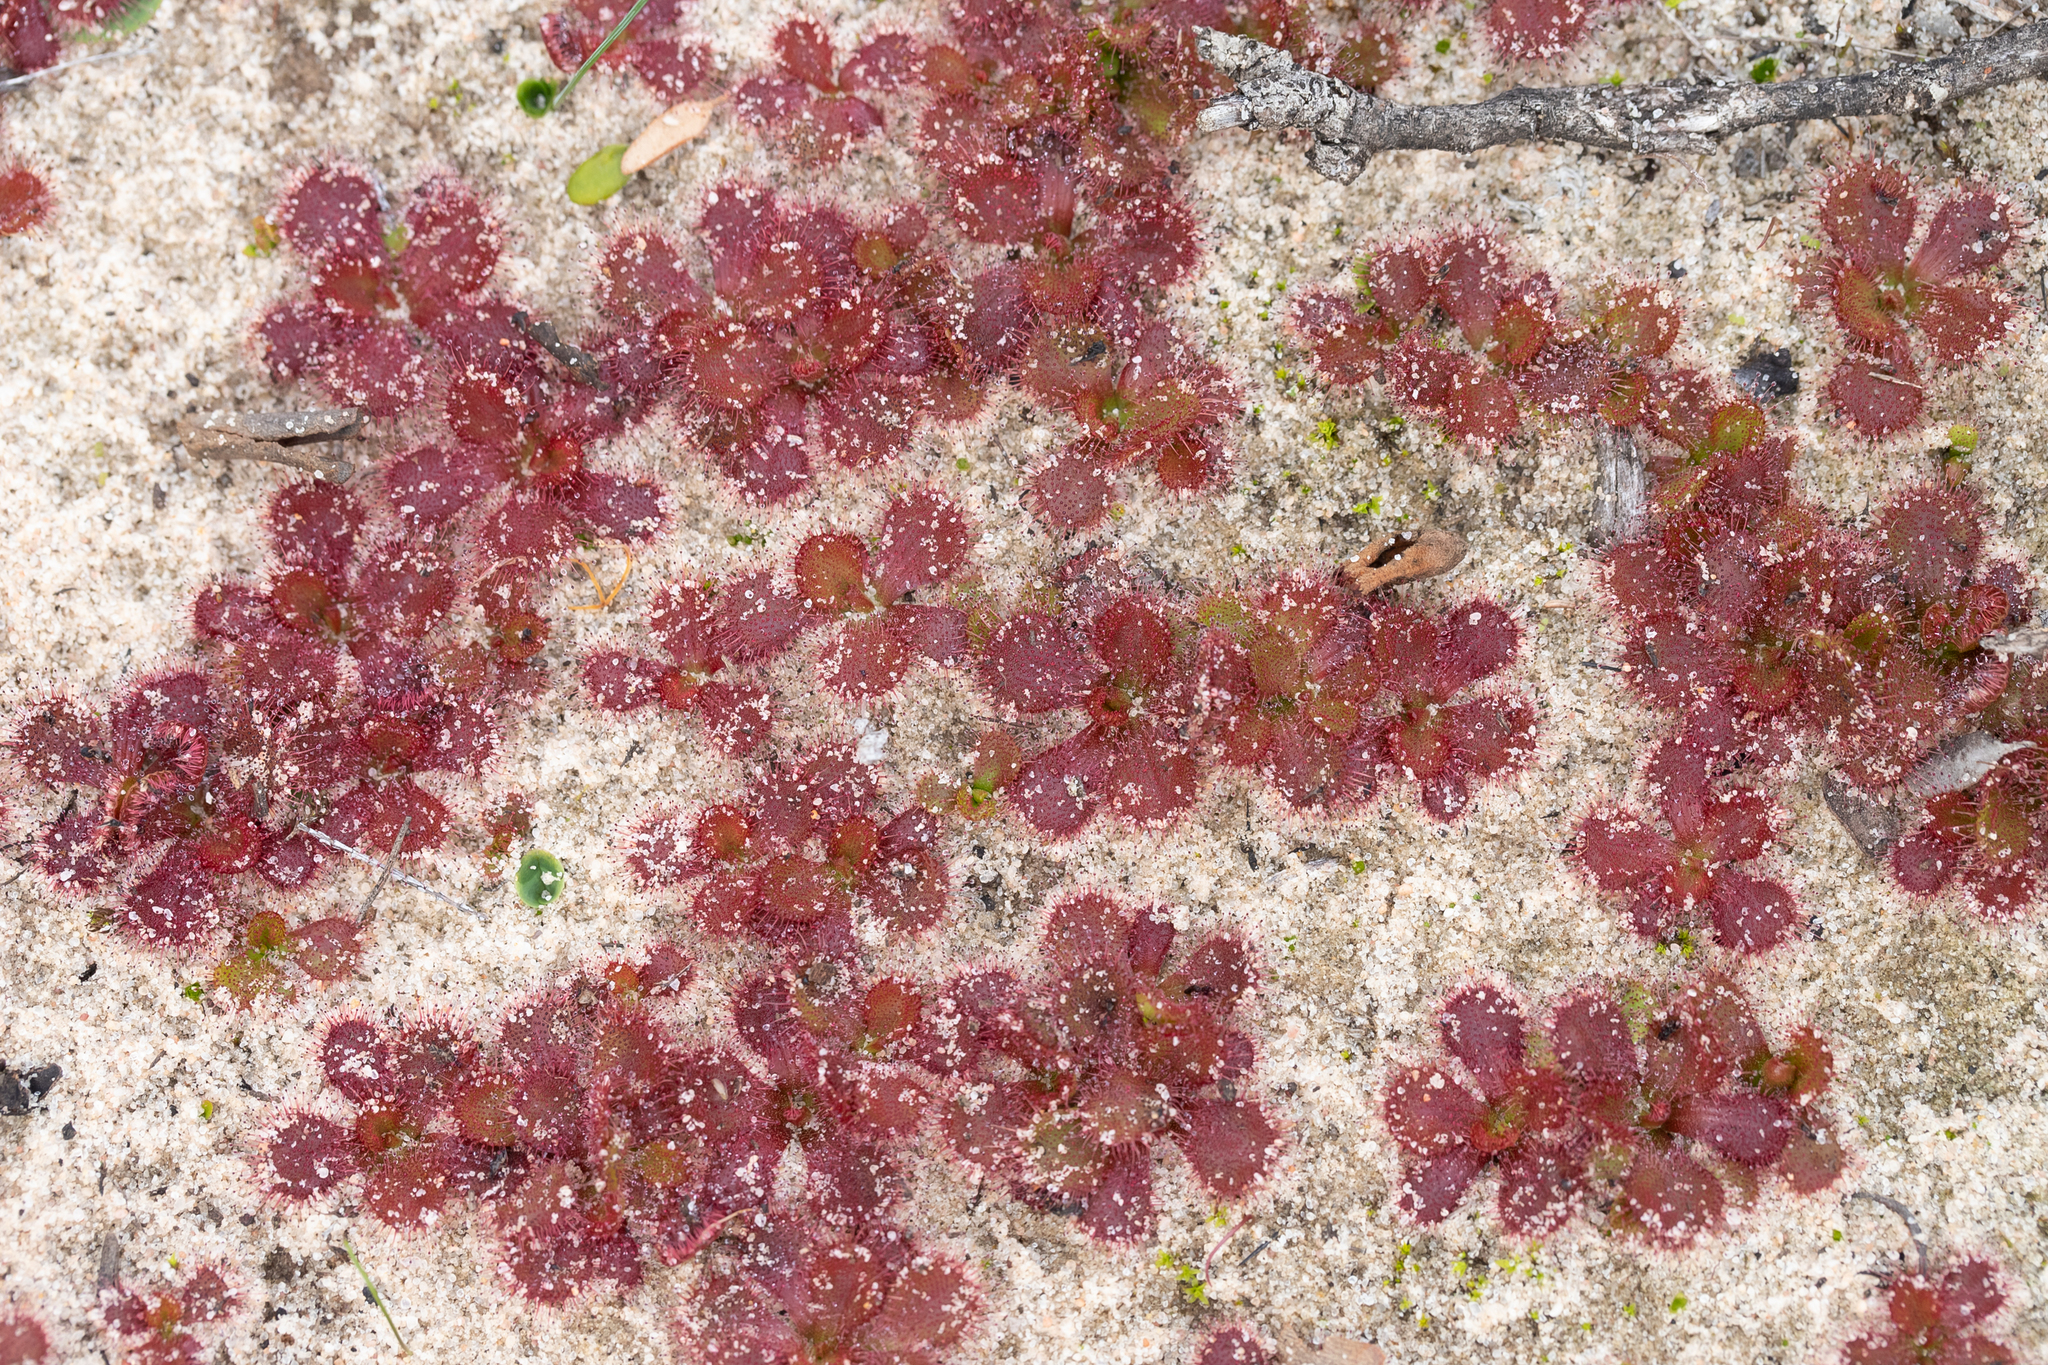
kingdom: Plantae
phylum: Tracheophyta
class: Magnoliopsida
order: Caryophyllales
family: Droseraceae
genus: Drosera
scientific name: Drosera aberrans
